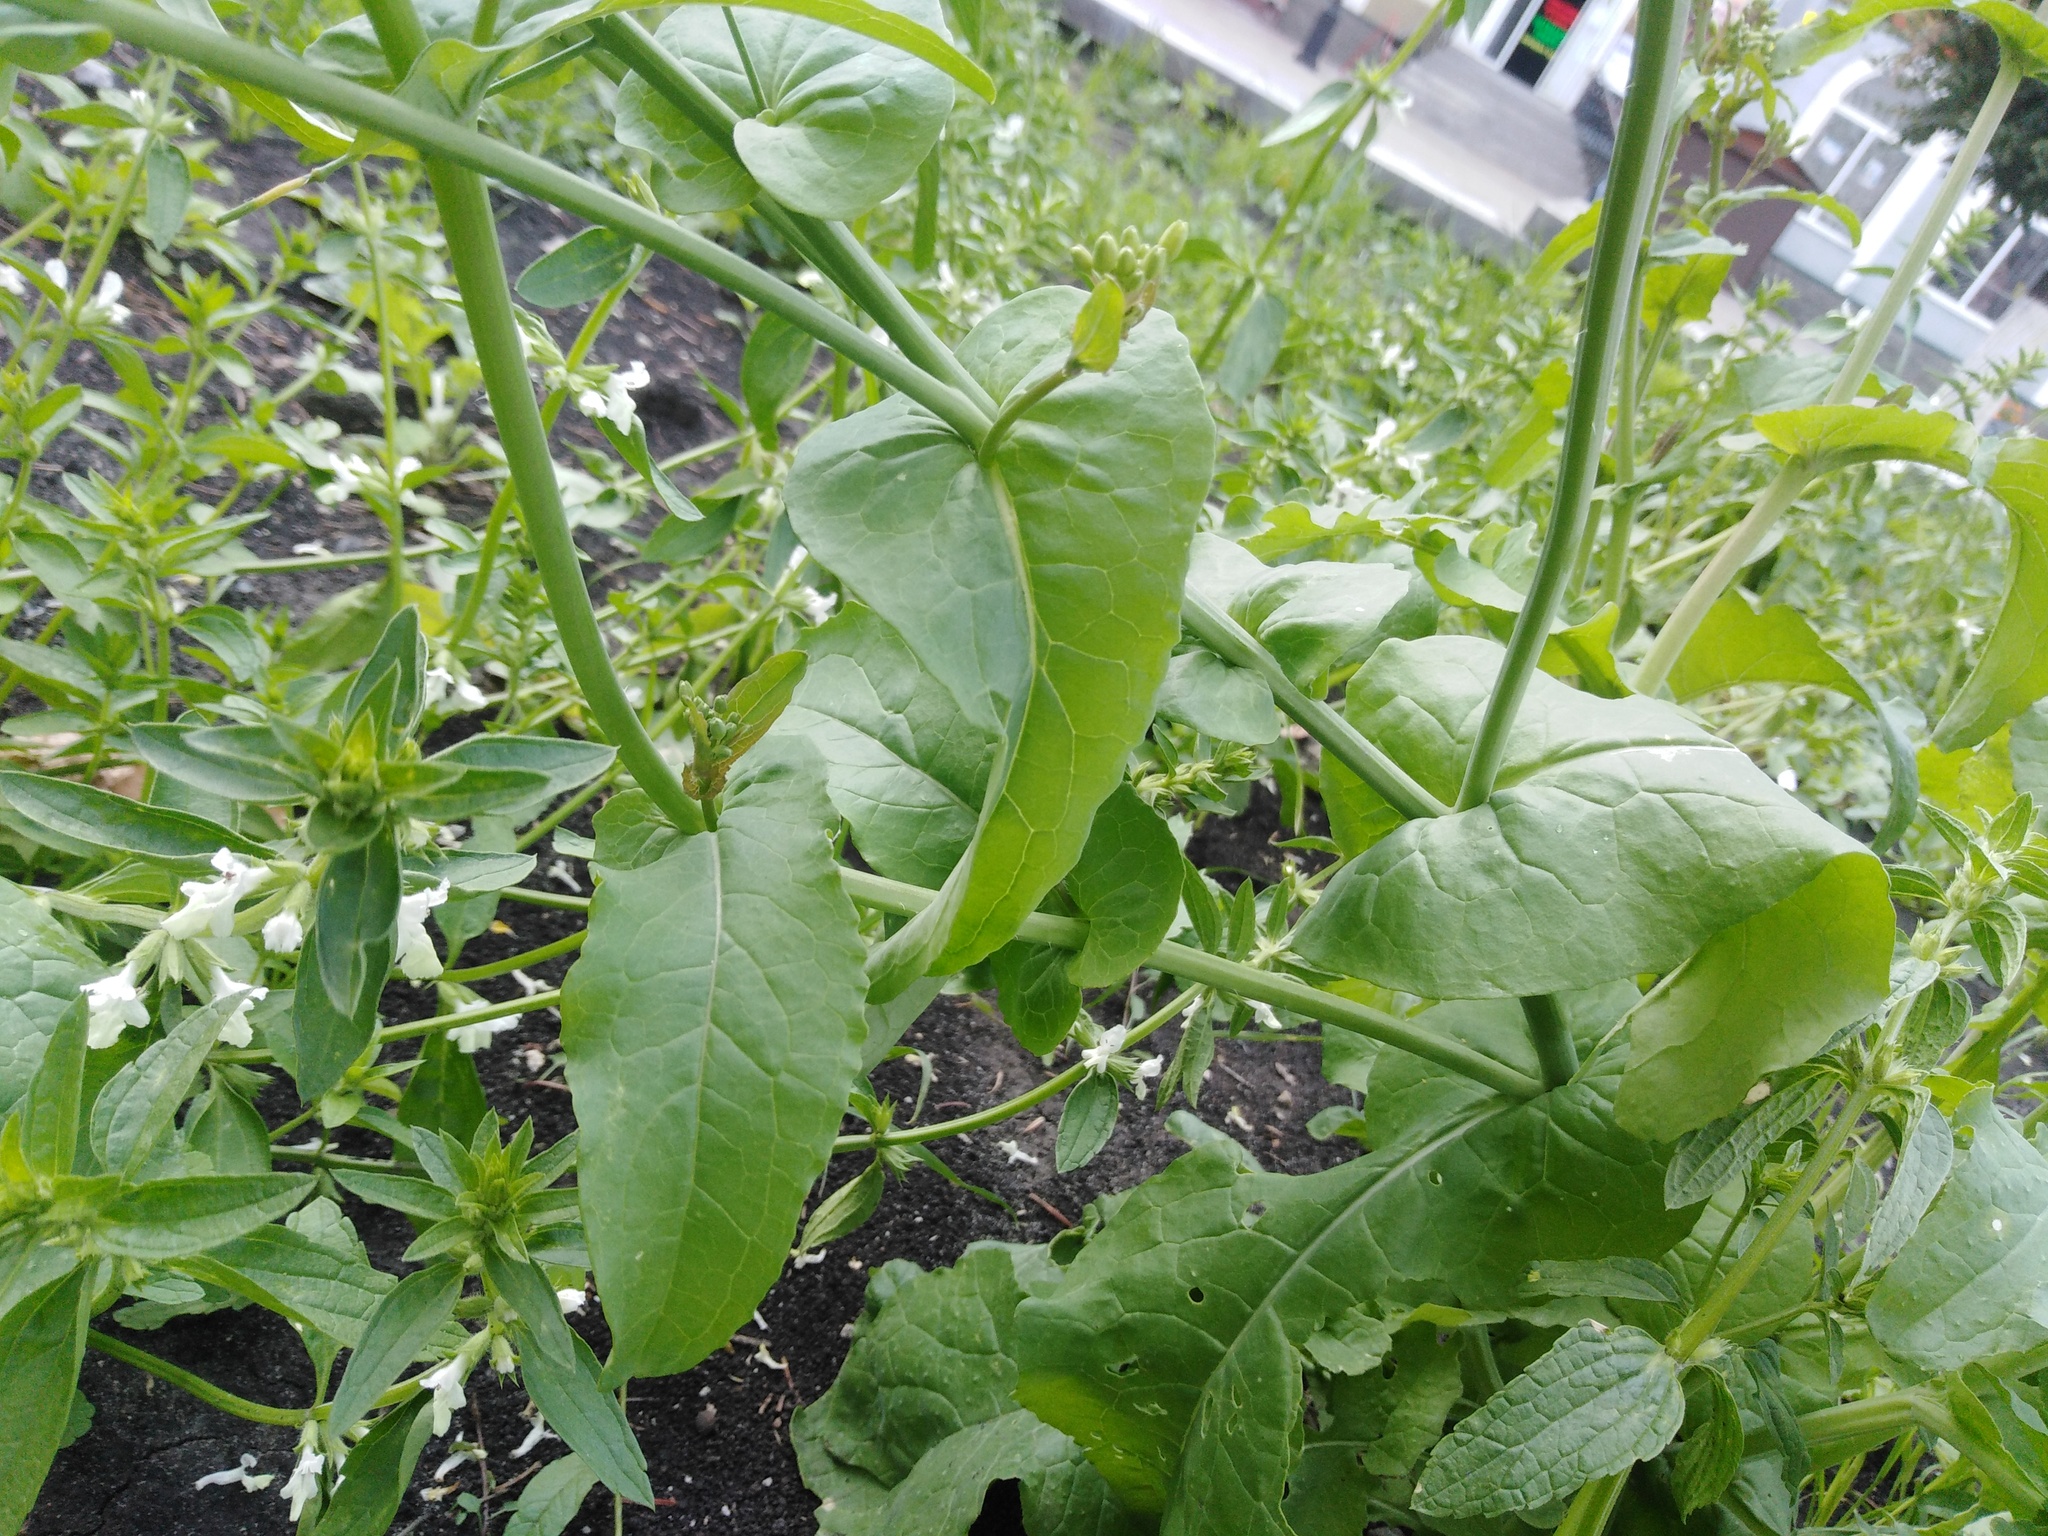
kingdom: Plantae
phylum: Tracheophyta
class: Magnoliopsida
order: Brassicales
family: Brassicaceae
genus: Brassica
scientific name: Brassica rapa
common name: Field mustard
